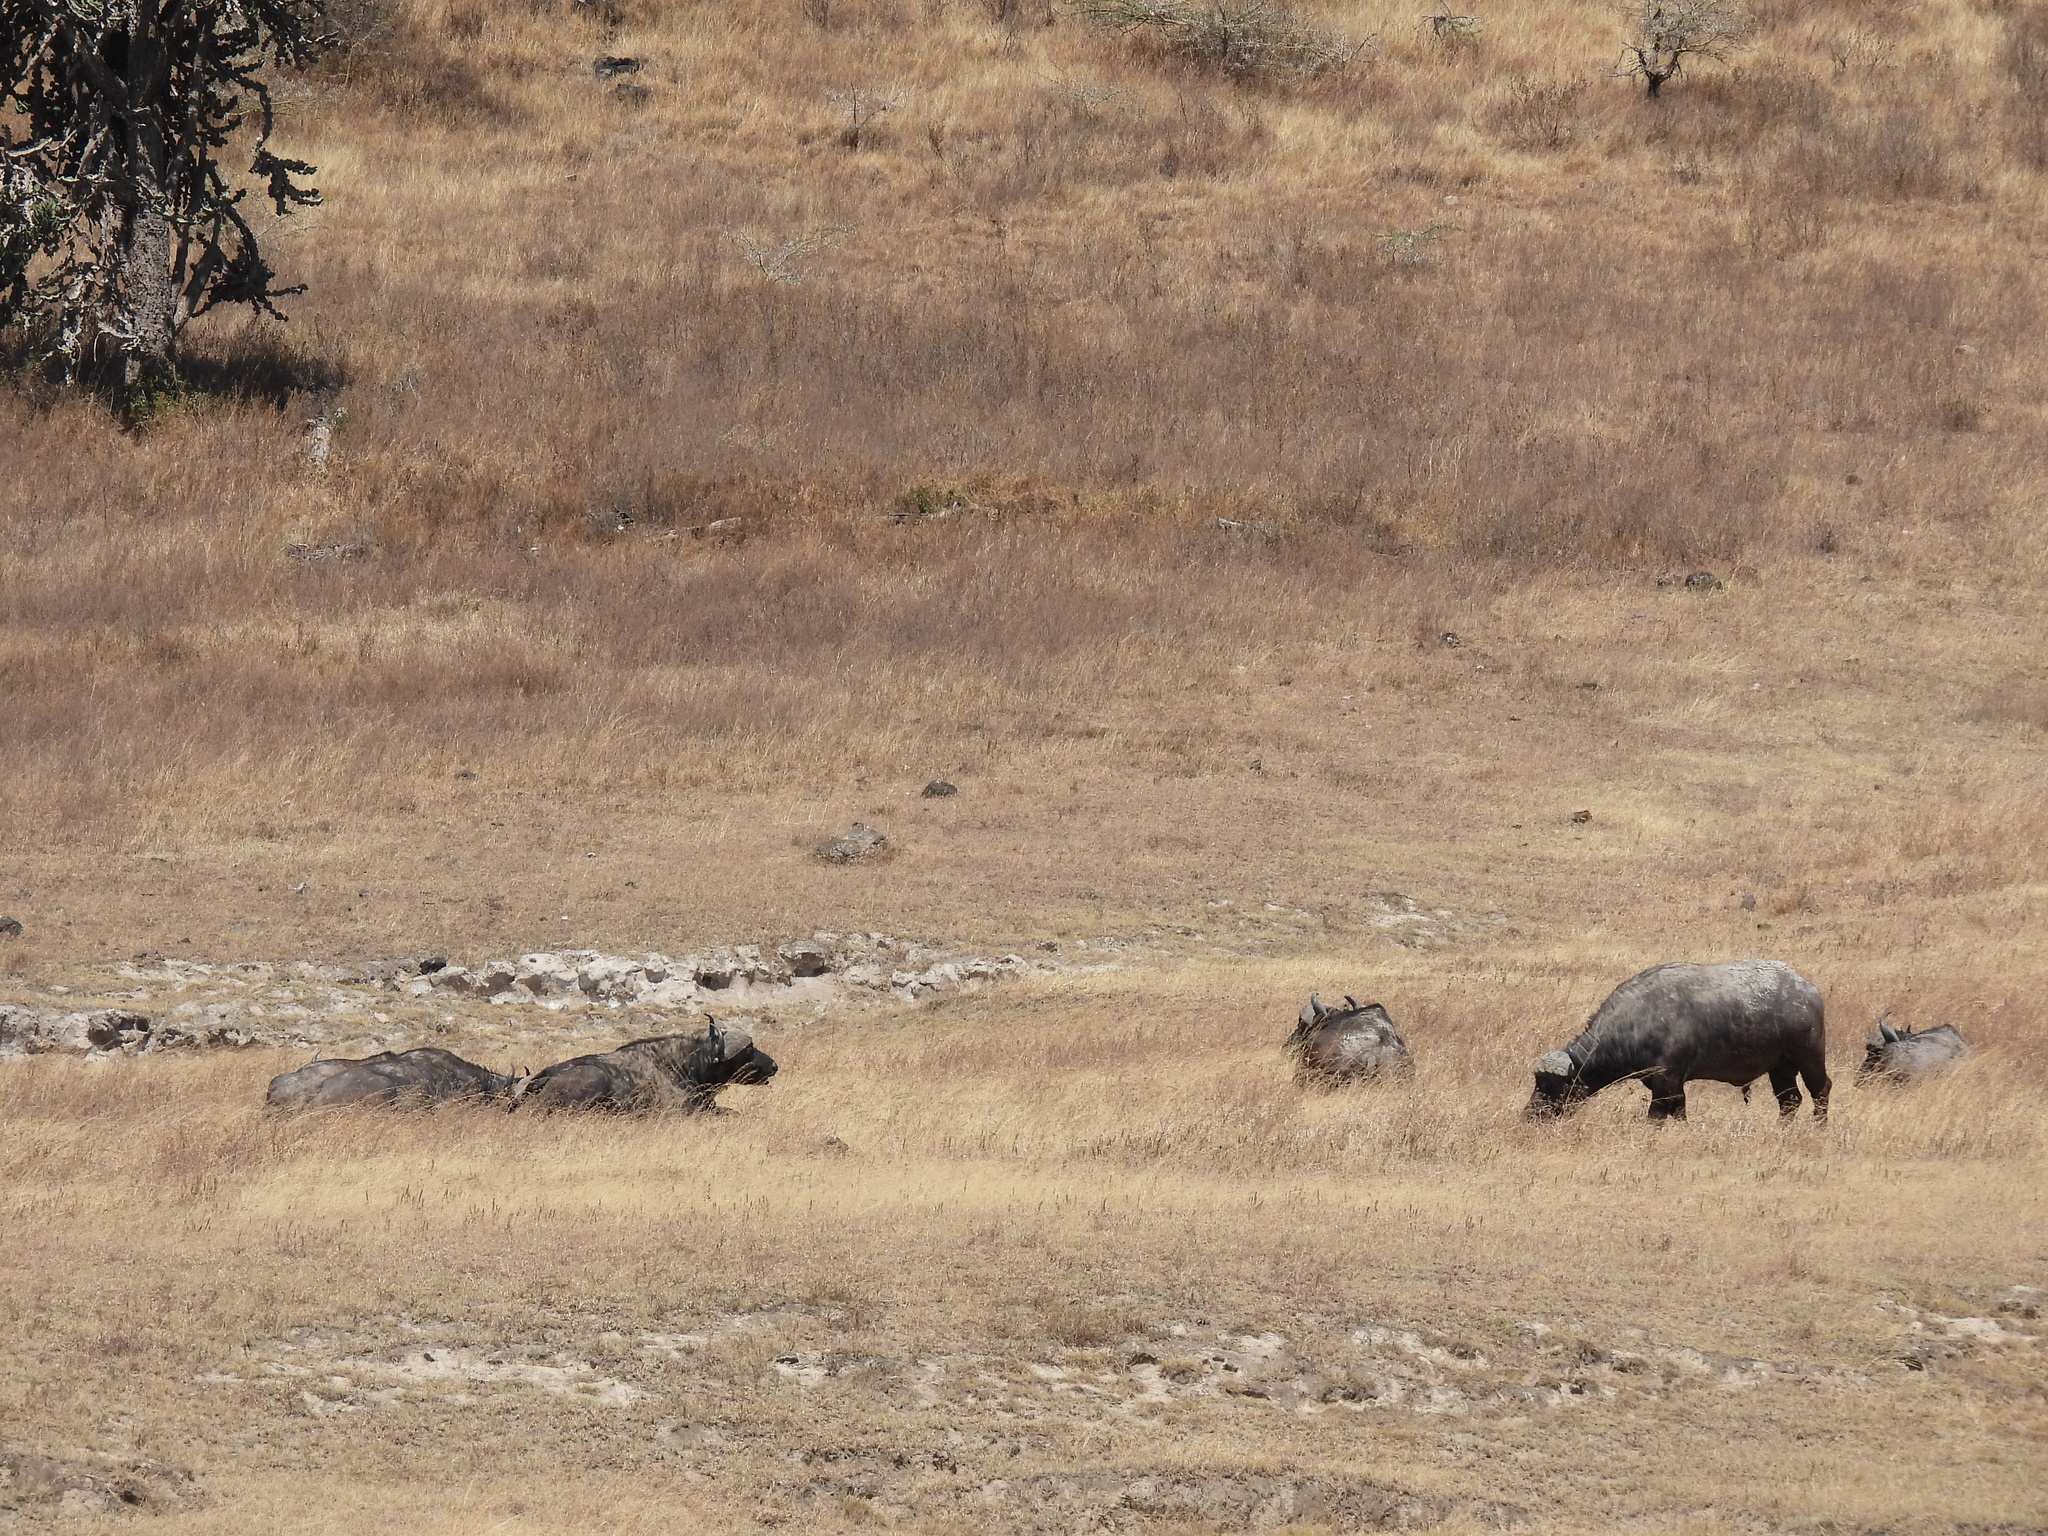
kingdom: Animalia
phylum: Chordata
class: Mammalia
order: Artiodactyla
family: Bovidae
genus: Syncerus
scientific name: Syncerus caffer
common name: African buffalo
